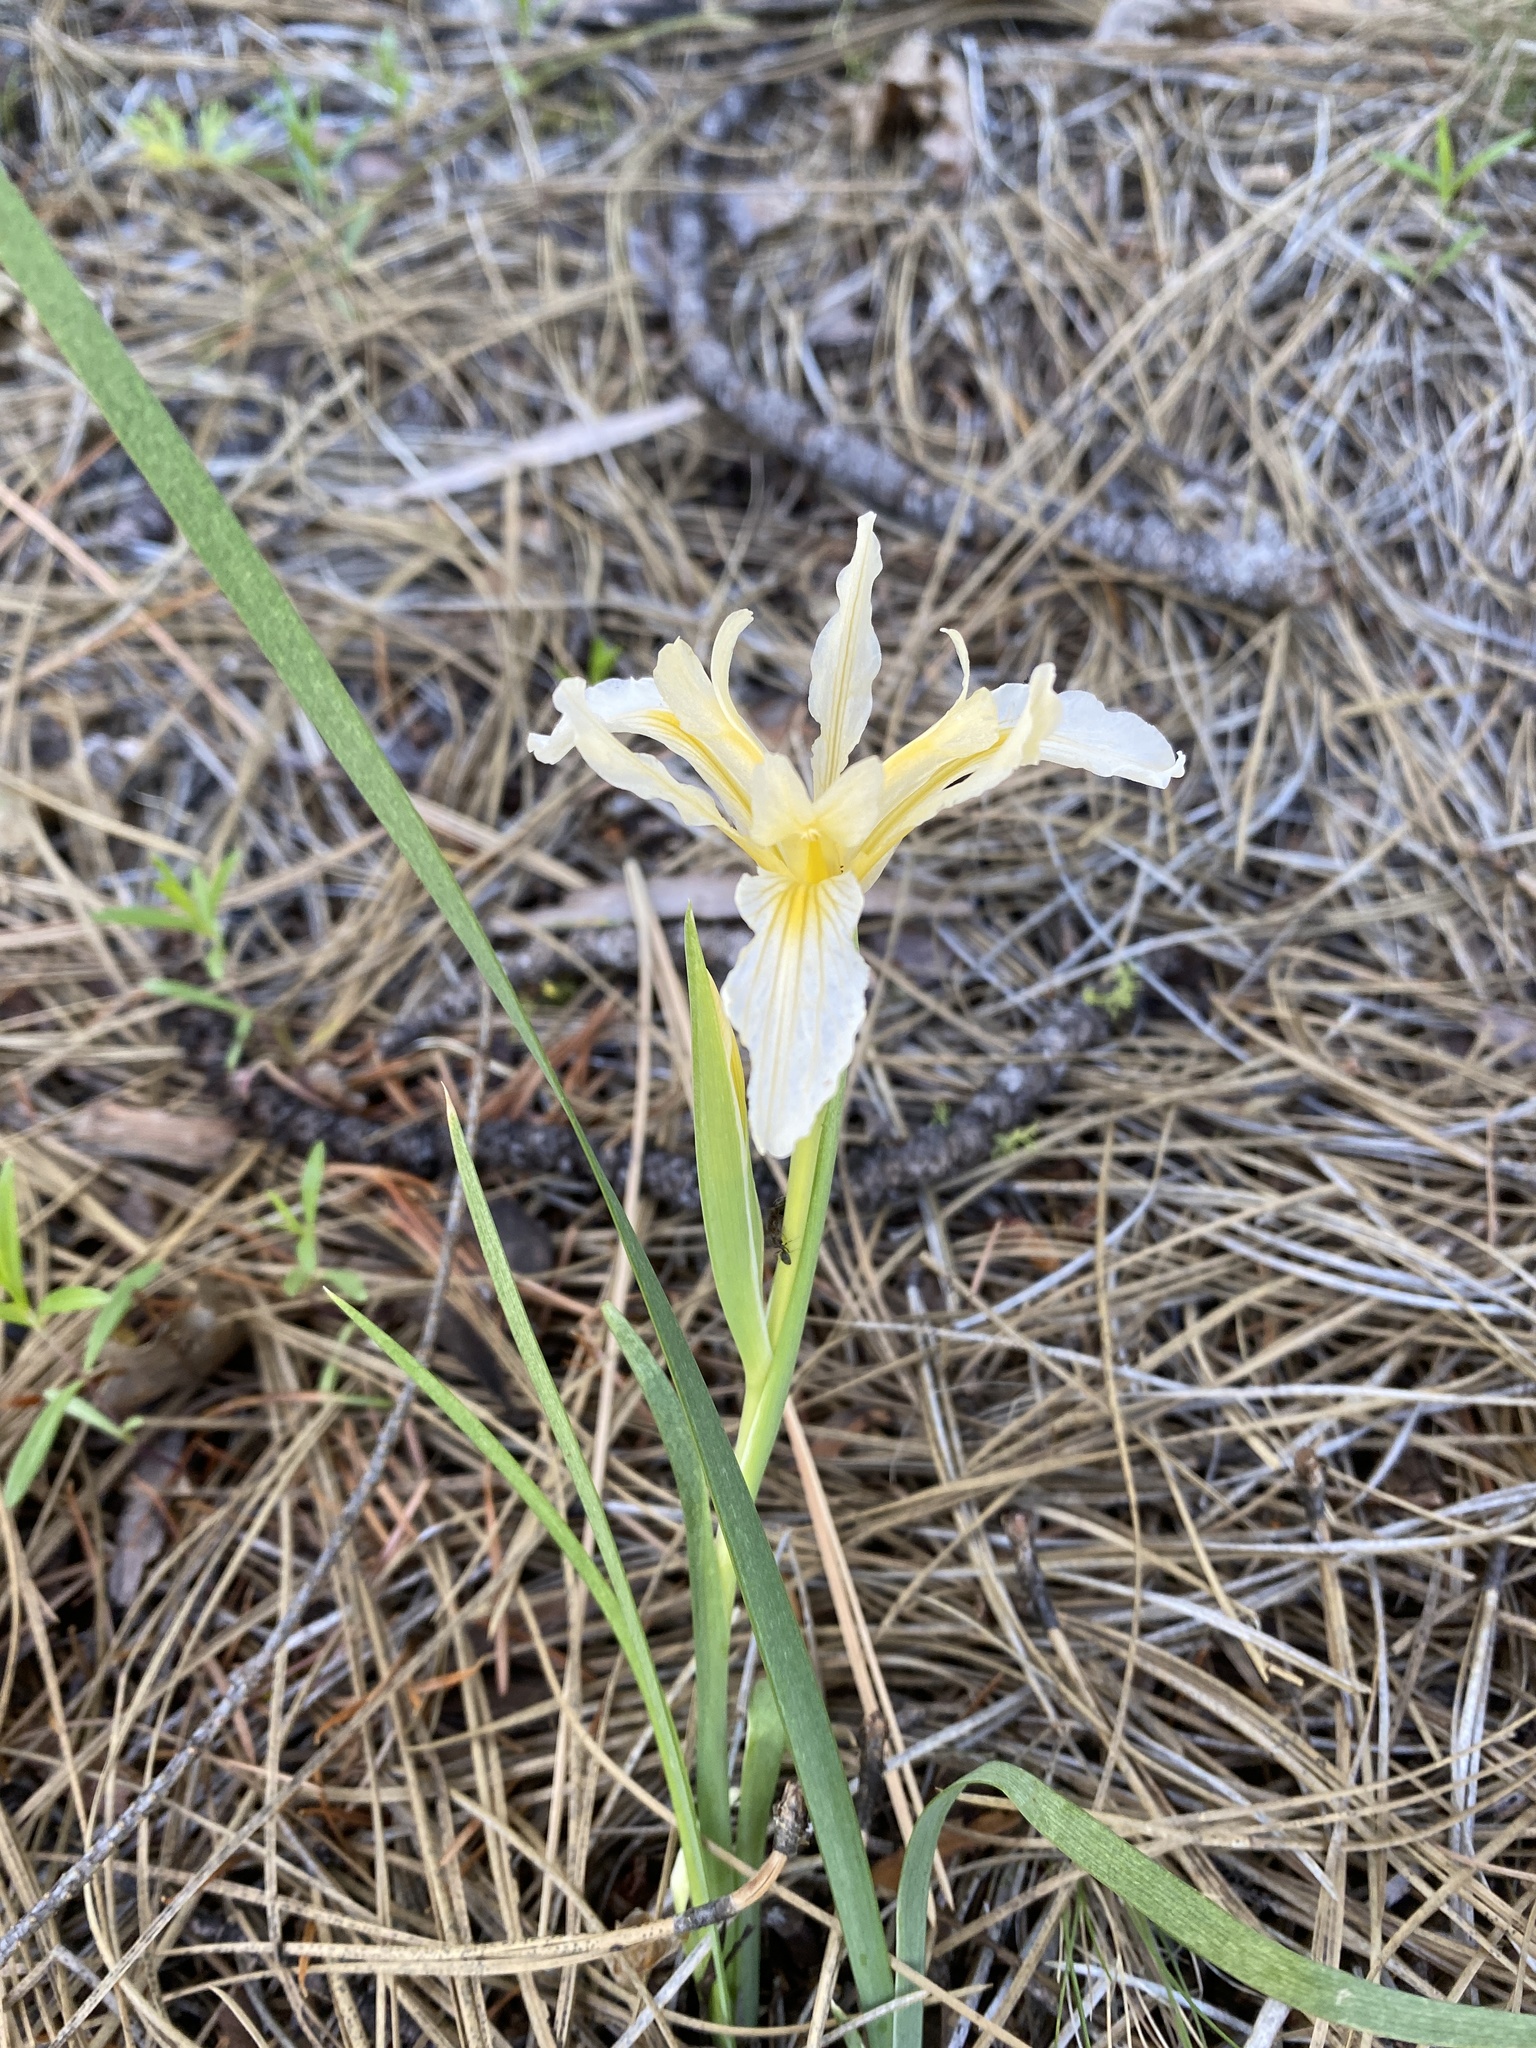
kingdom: Plantae
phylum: Tracheophyta
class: Liliopsida
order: Asparagales
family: Iridaceae
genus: Iris
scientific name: Iris hartwegii
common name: Sierra iris
